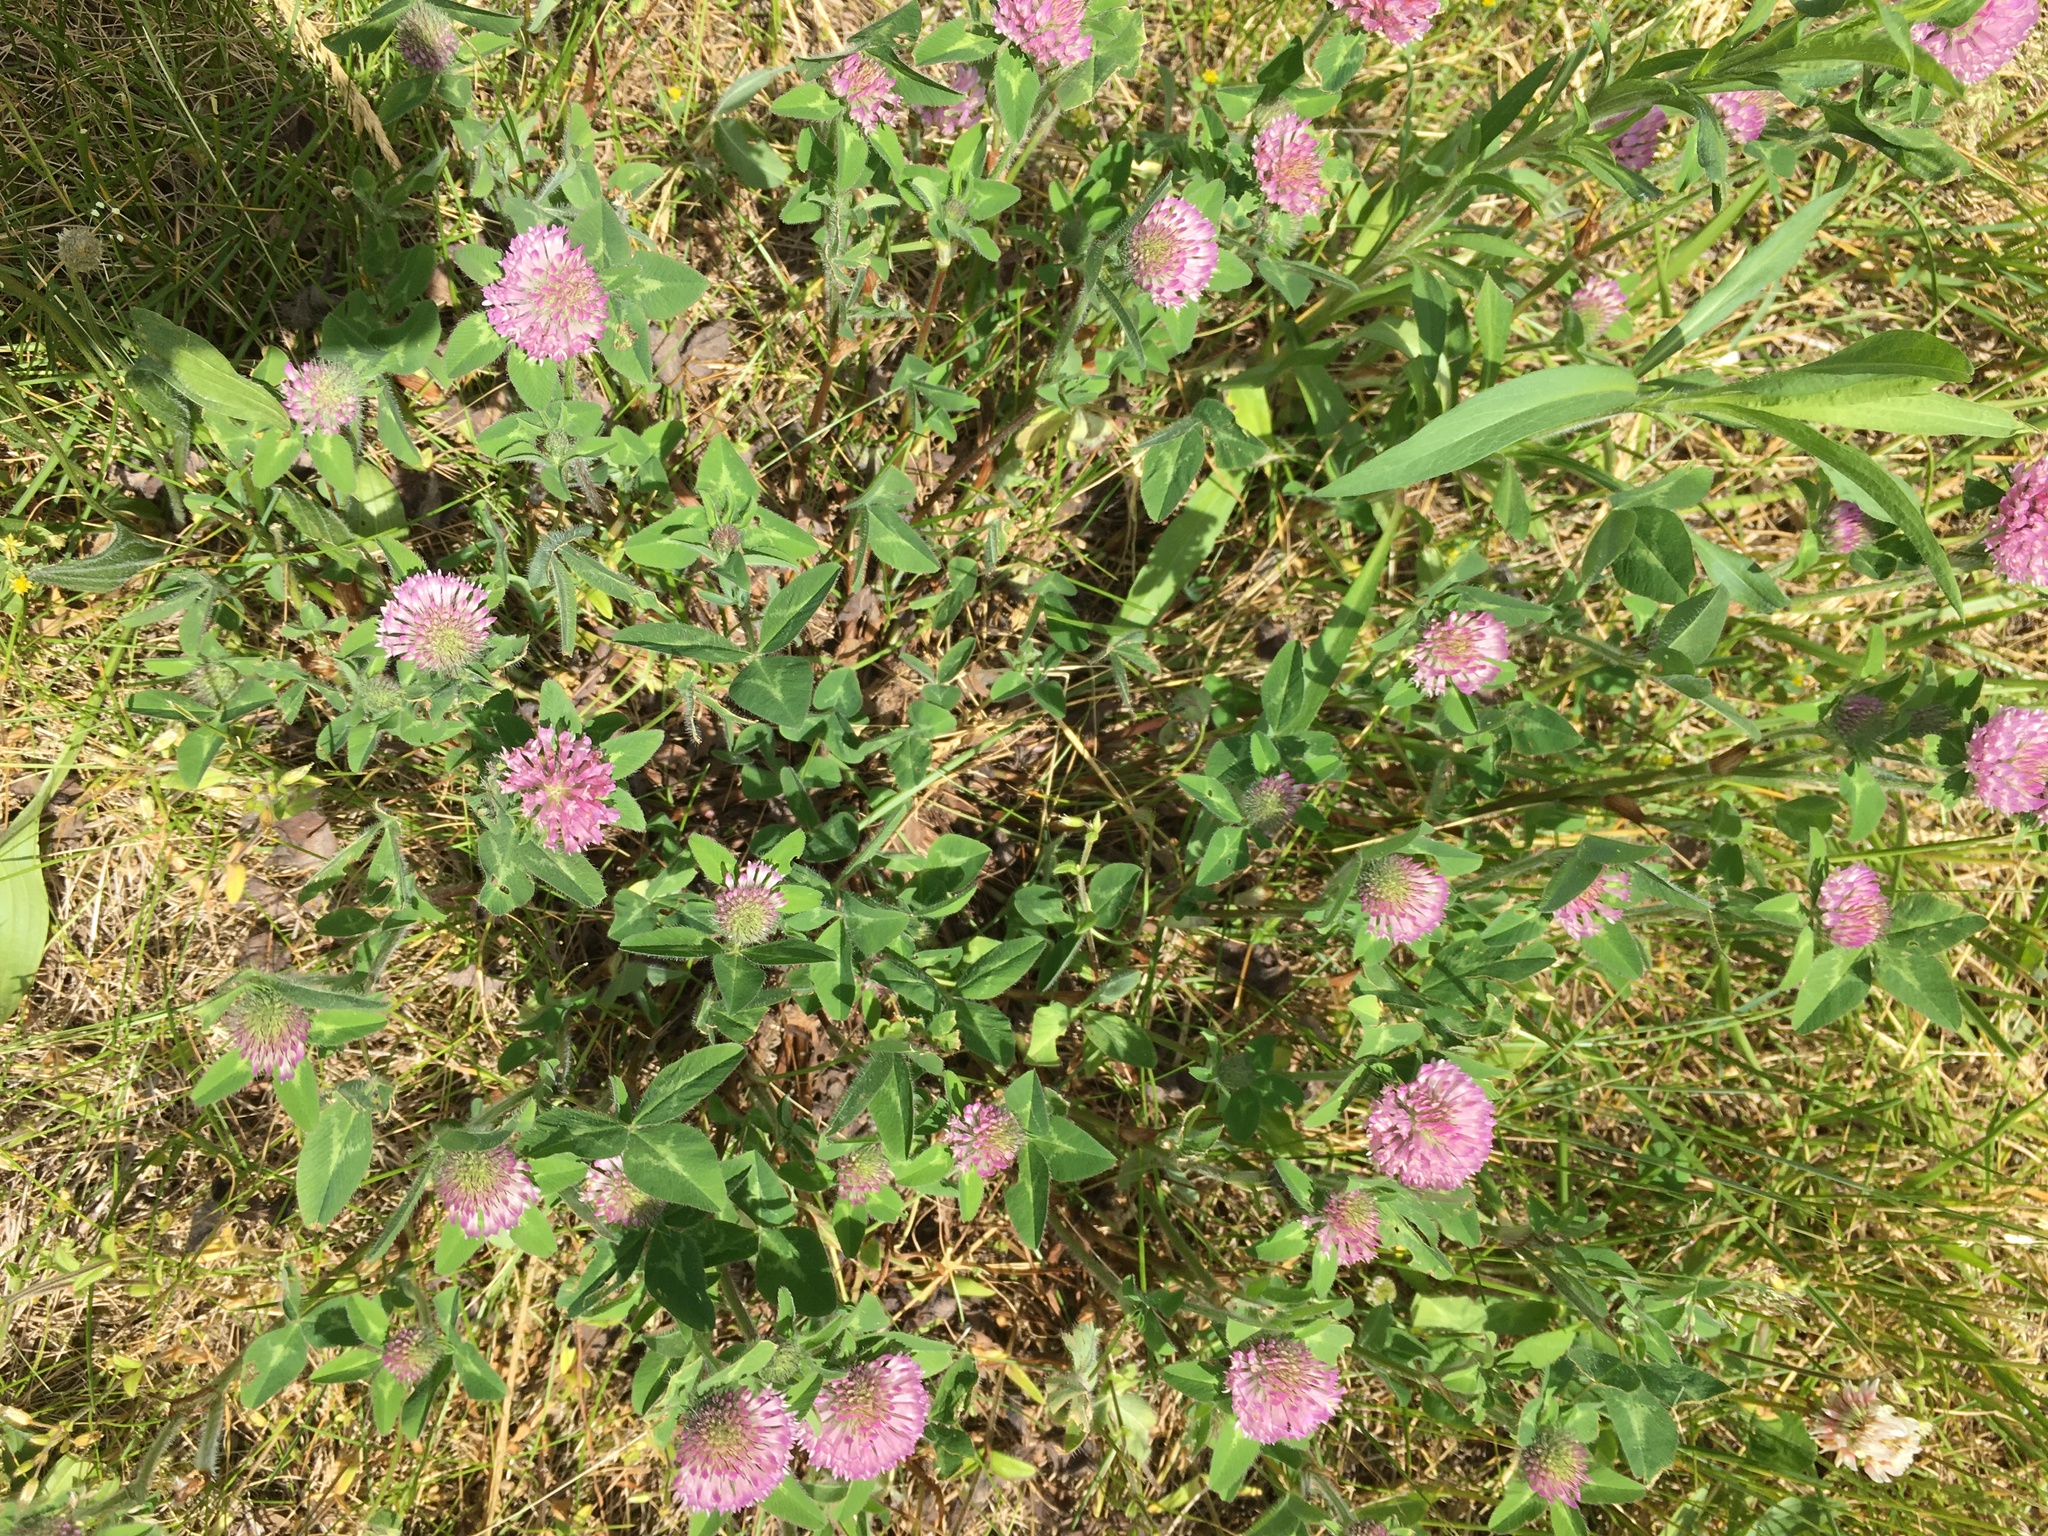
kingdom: Plantae
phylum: Tracheophyta
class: Magnoliopsida
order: Fabales
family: Fabaceae
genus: Trifolium
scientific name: Trifolium pratense
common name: Red clover
